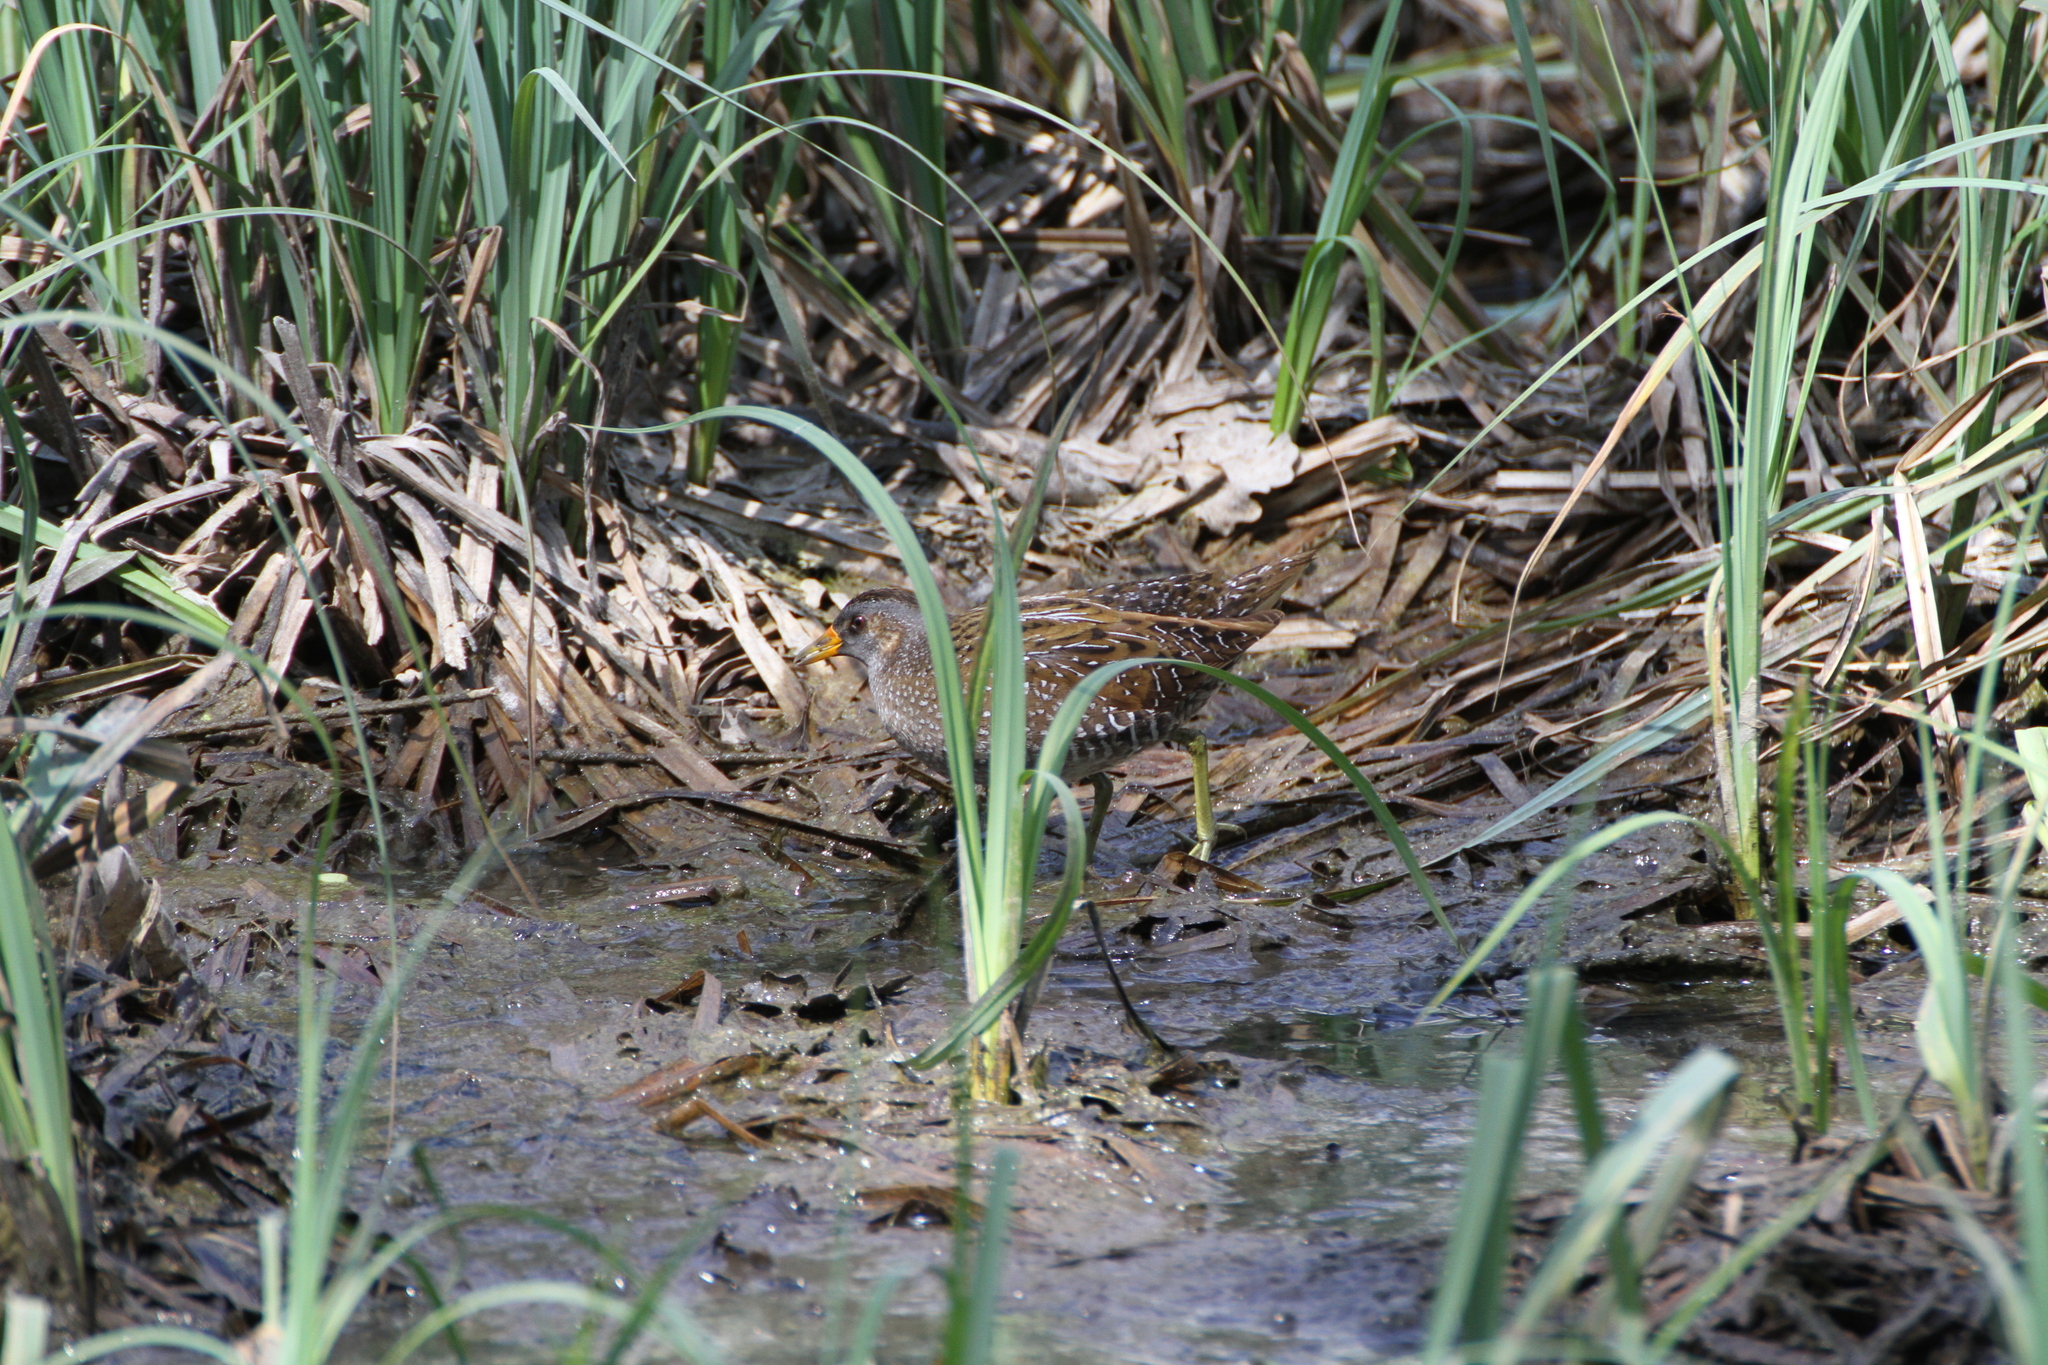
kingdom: Animalia
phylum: Chordata
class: Aves
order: Gruiformes
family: Rallidae
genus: Porzana
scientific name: Porzana porzana
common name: Spotted crake
